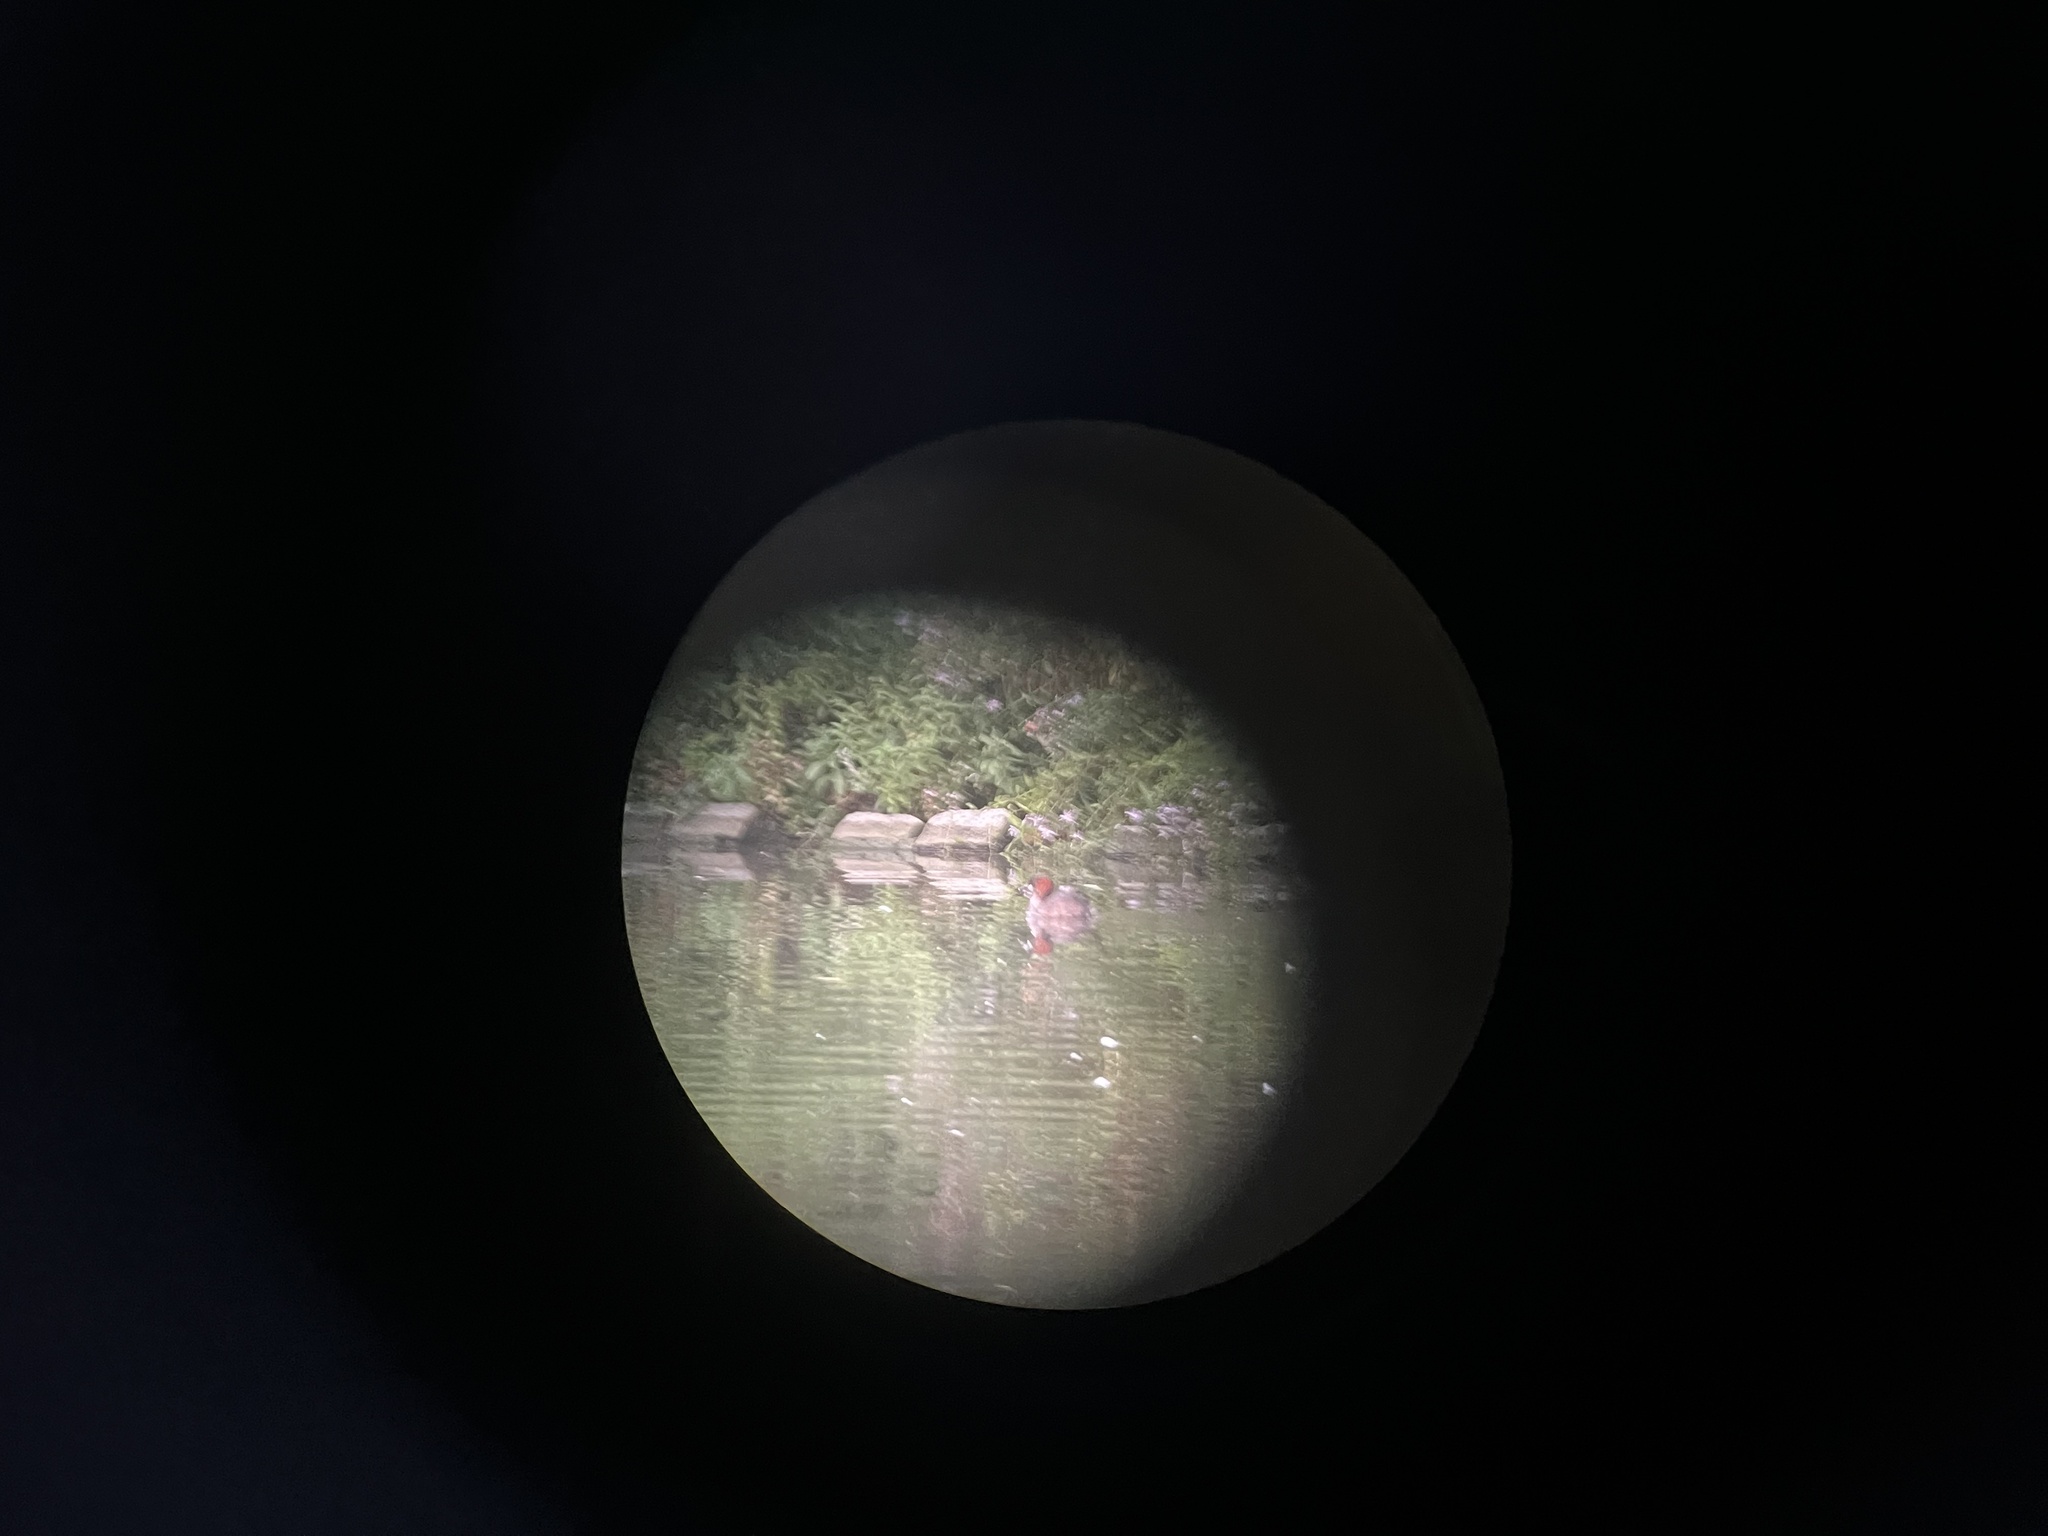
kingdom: Animalia
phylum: Chordata
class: Aves
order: Podicipediformes
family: Podicipedidae
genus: Tachybaptus
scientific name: Tachybaptus ruficollis
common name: Little grebe
